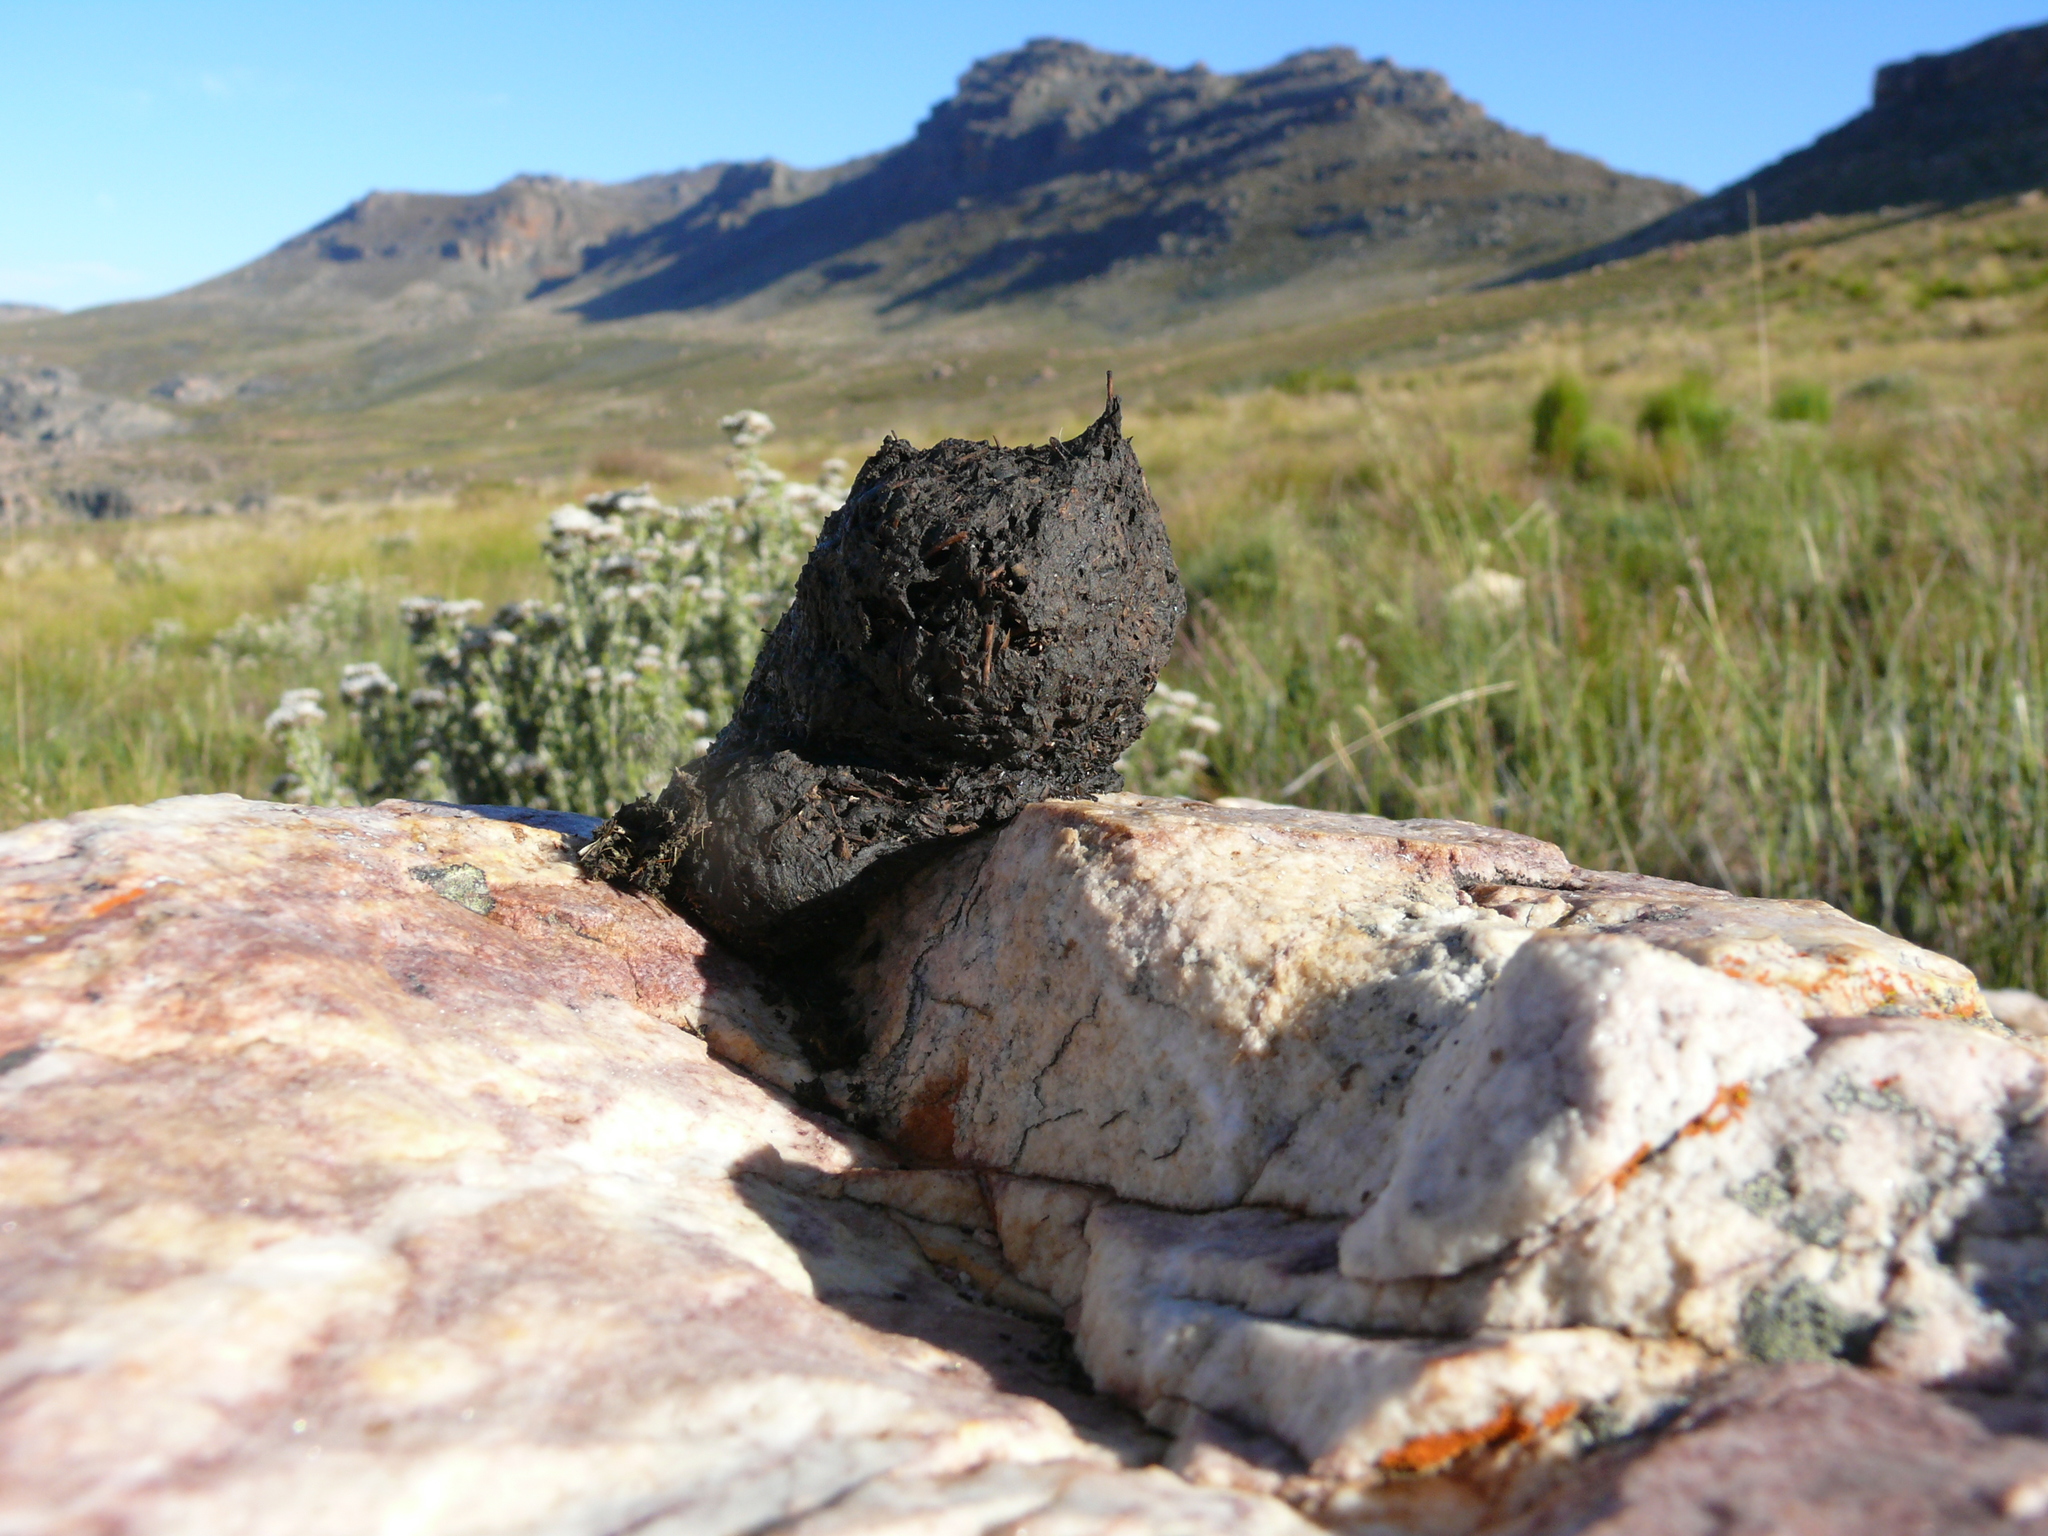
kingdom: Animalia
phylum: Chordata
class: Mammalia
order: Primates
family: Cercopithecidae
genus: Papio
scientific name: Papio ursinus
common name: Chacma baboon
